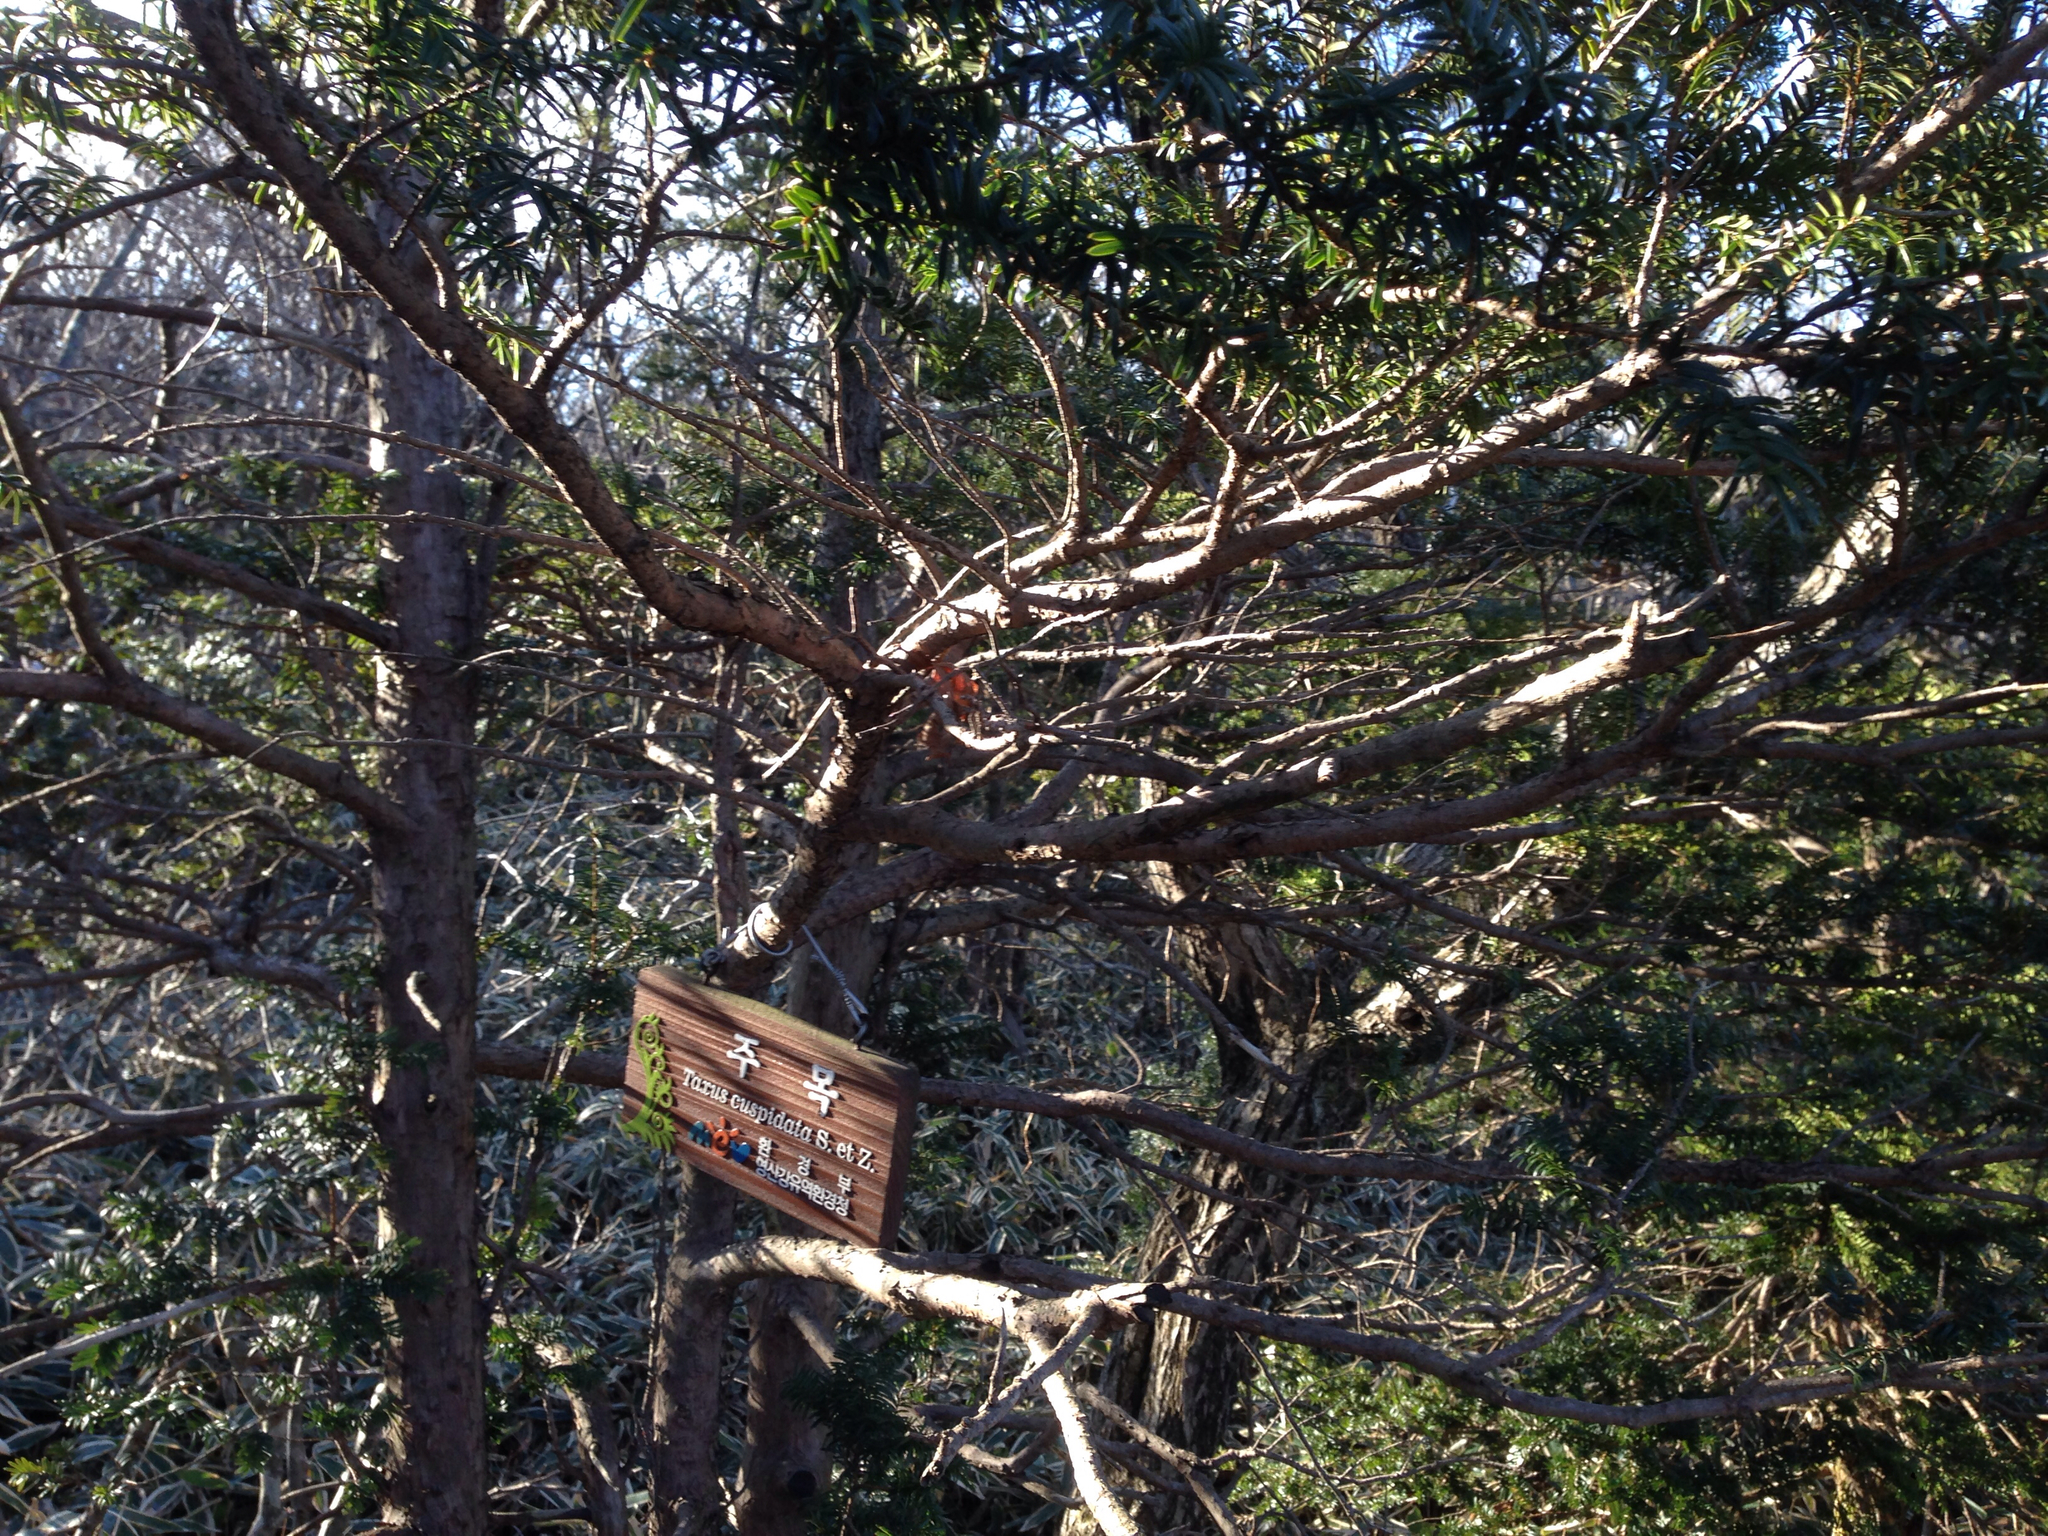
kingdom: Plantae
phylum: Tracheophyta
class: Pinopsida
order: Pinales
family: Taxaceae
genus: Taxus
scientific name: Taxus cuspidata
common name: Japanese yew
